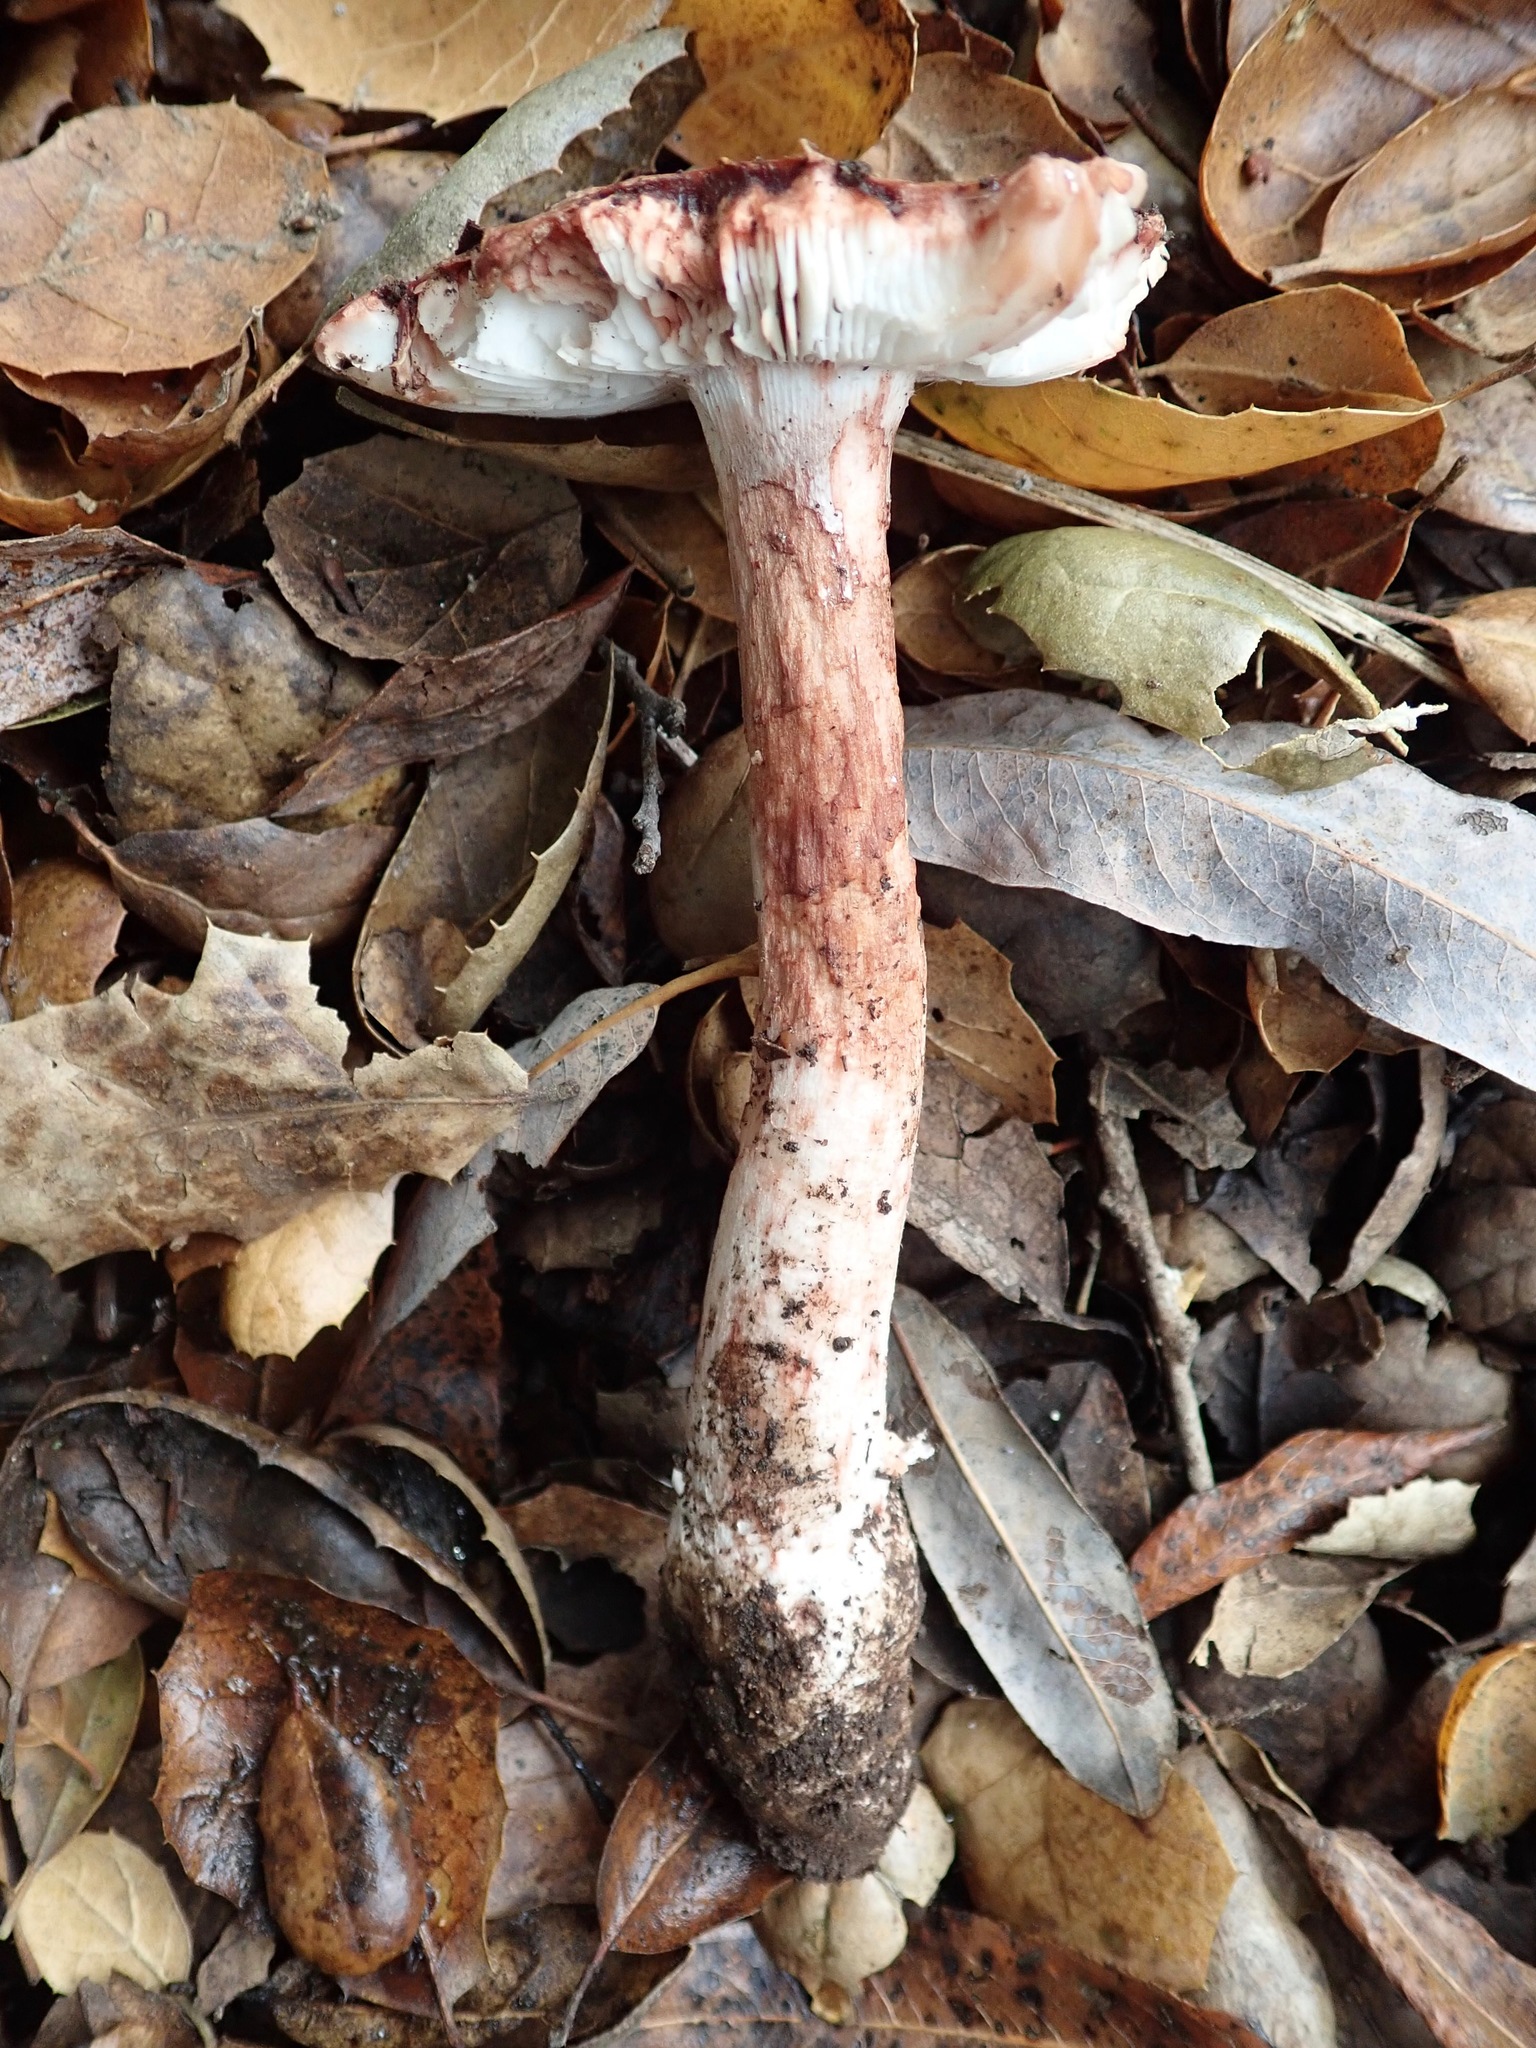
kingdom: Fungi
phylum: Basidiomycota
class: Agaricomycetes
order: Agaricales
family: Amanitaceae
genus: Amanita
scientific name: Amanita novinupta
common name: Blushing bride
